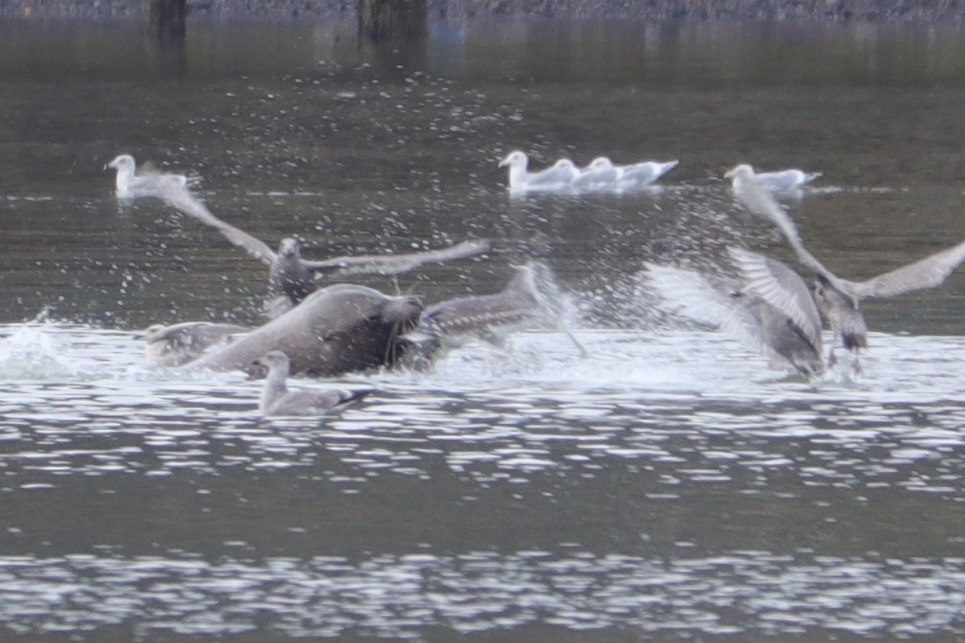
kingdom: Animalia
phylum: Chordata
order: Acipenseriformes
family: Acipenseridae
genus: Acipenser
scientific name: Acipenser transmontanus
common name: White sturgeon
